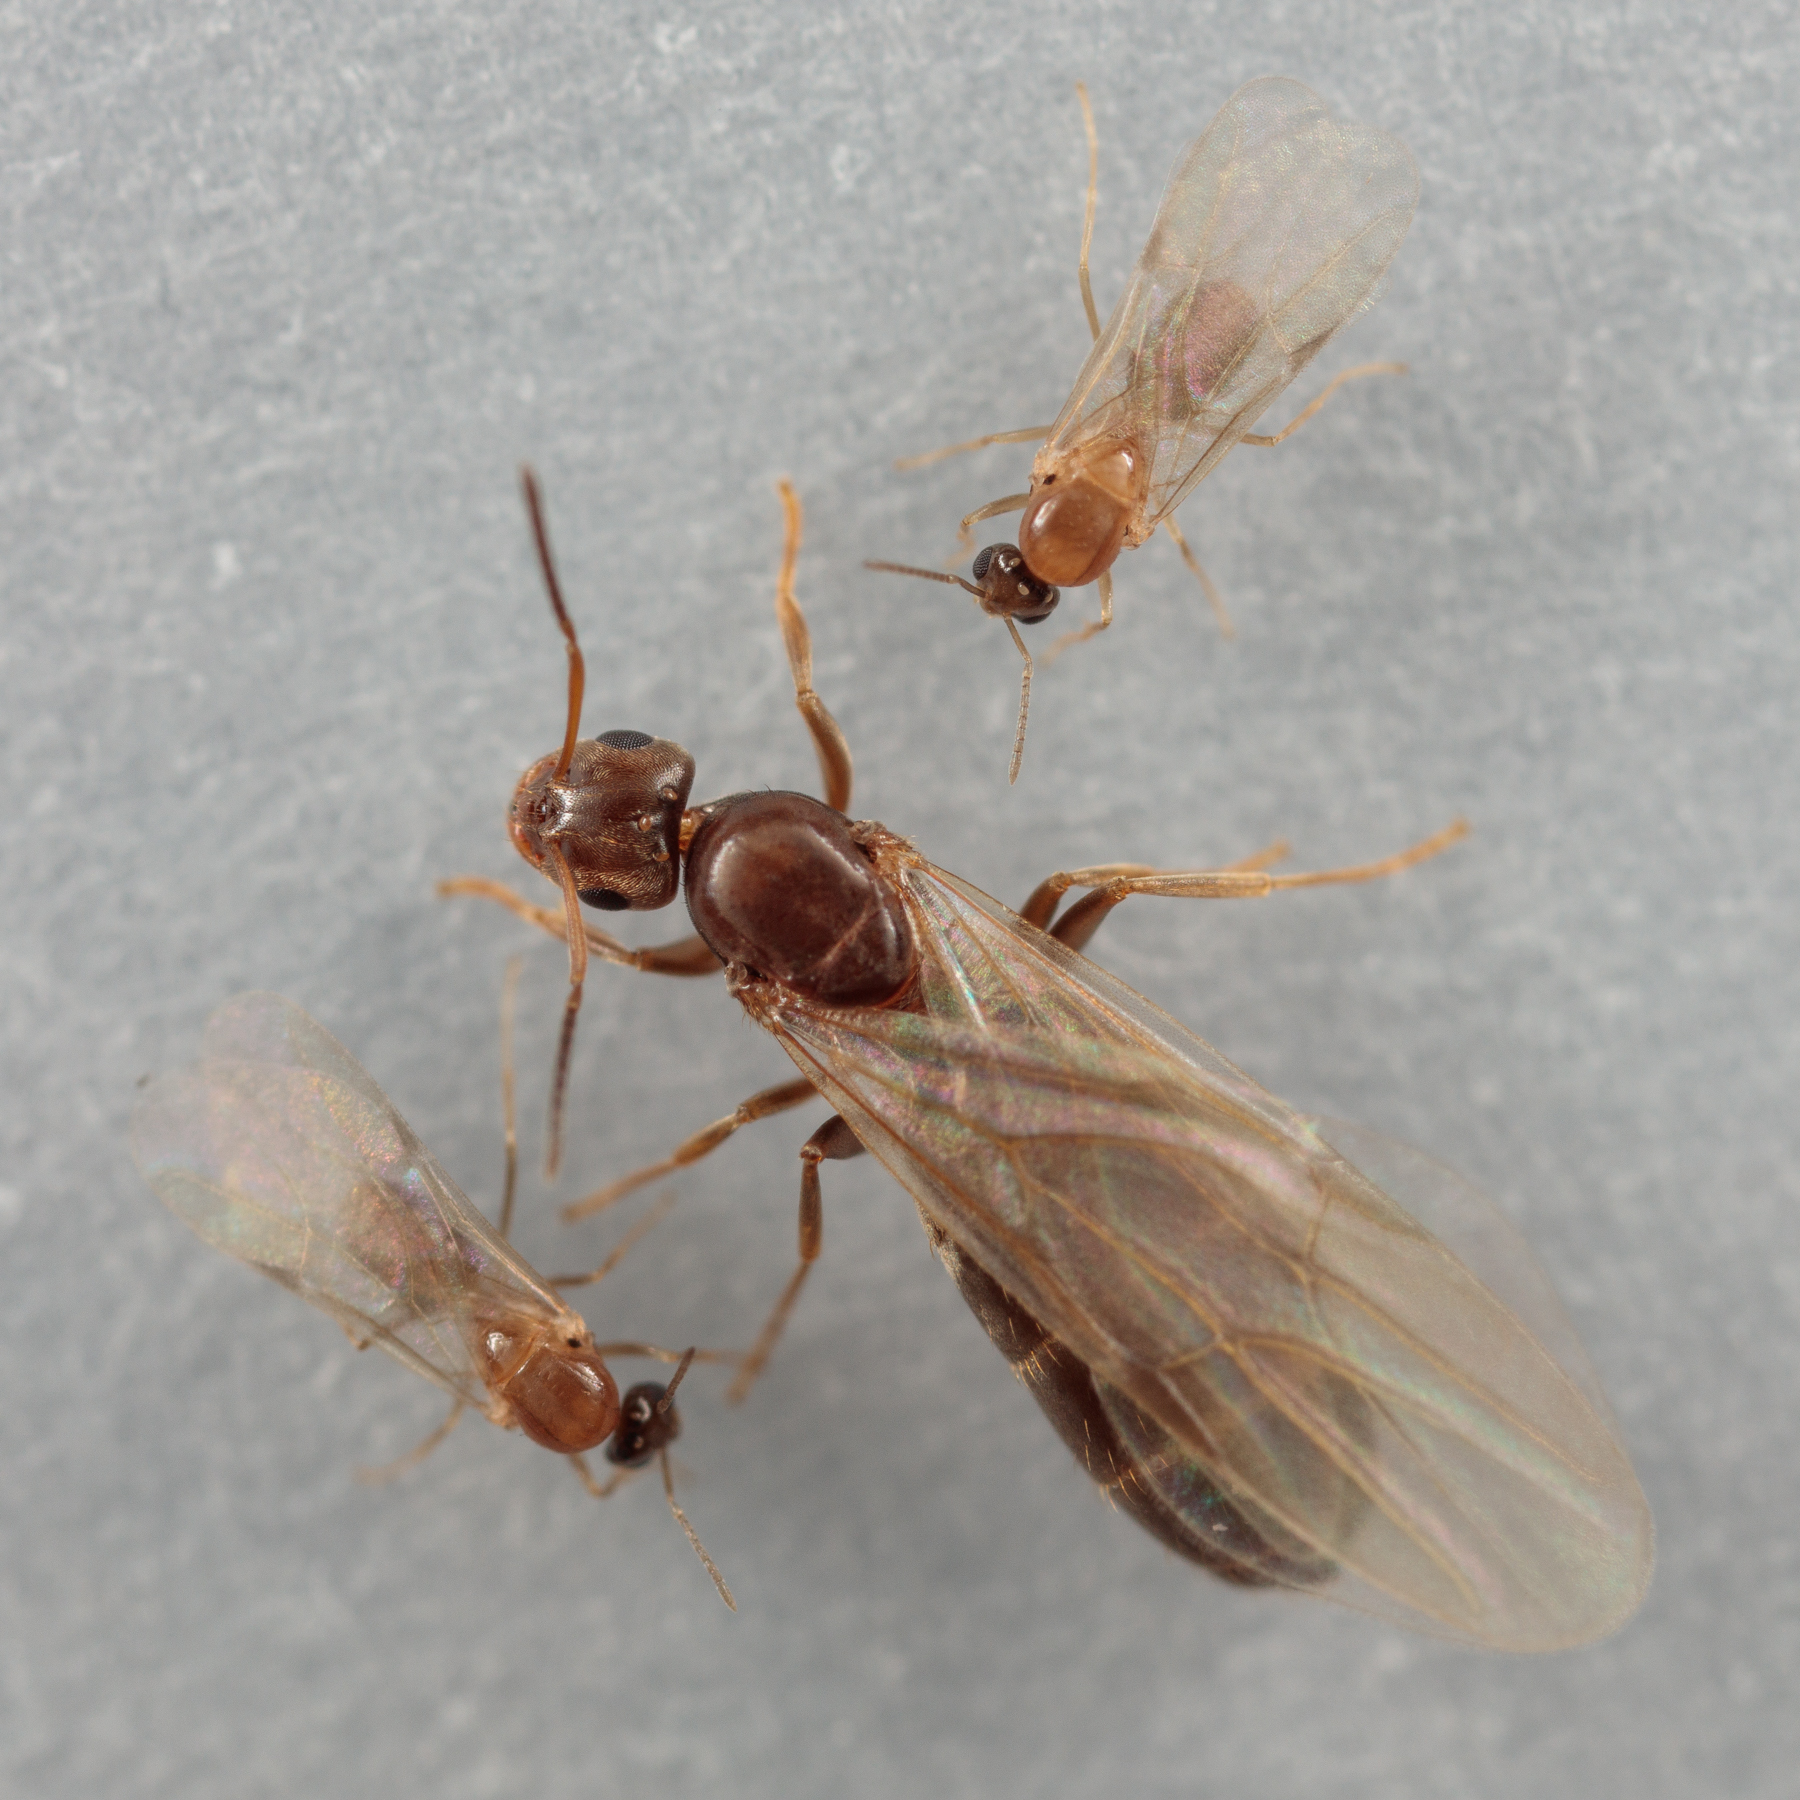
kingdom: Animalia
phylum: Arthropoda
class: Insecta
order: Hymenoptera
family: Formicidae
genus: Brachymyrmex
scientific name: Brachymyrmex patagonicus
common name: Dark rover ant
